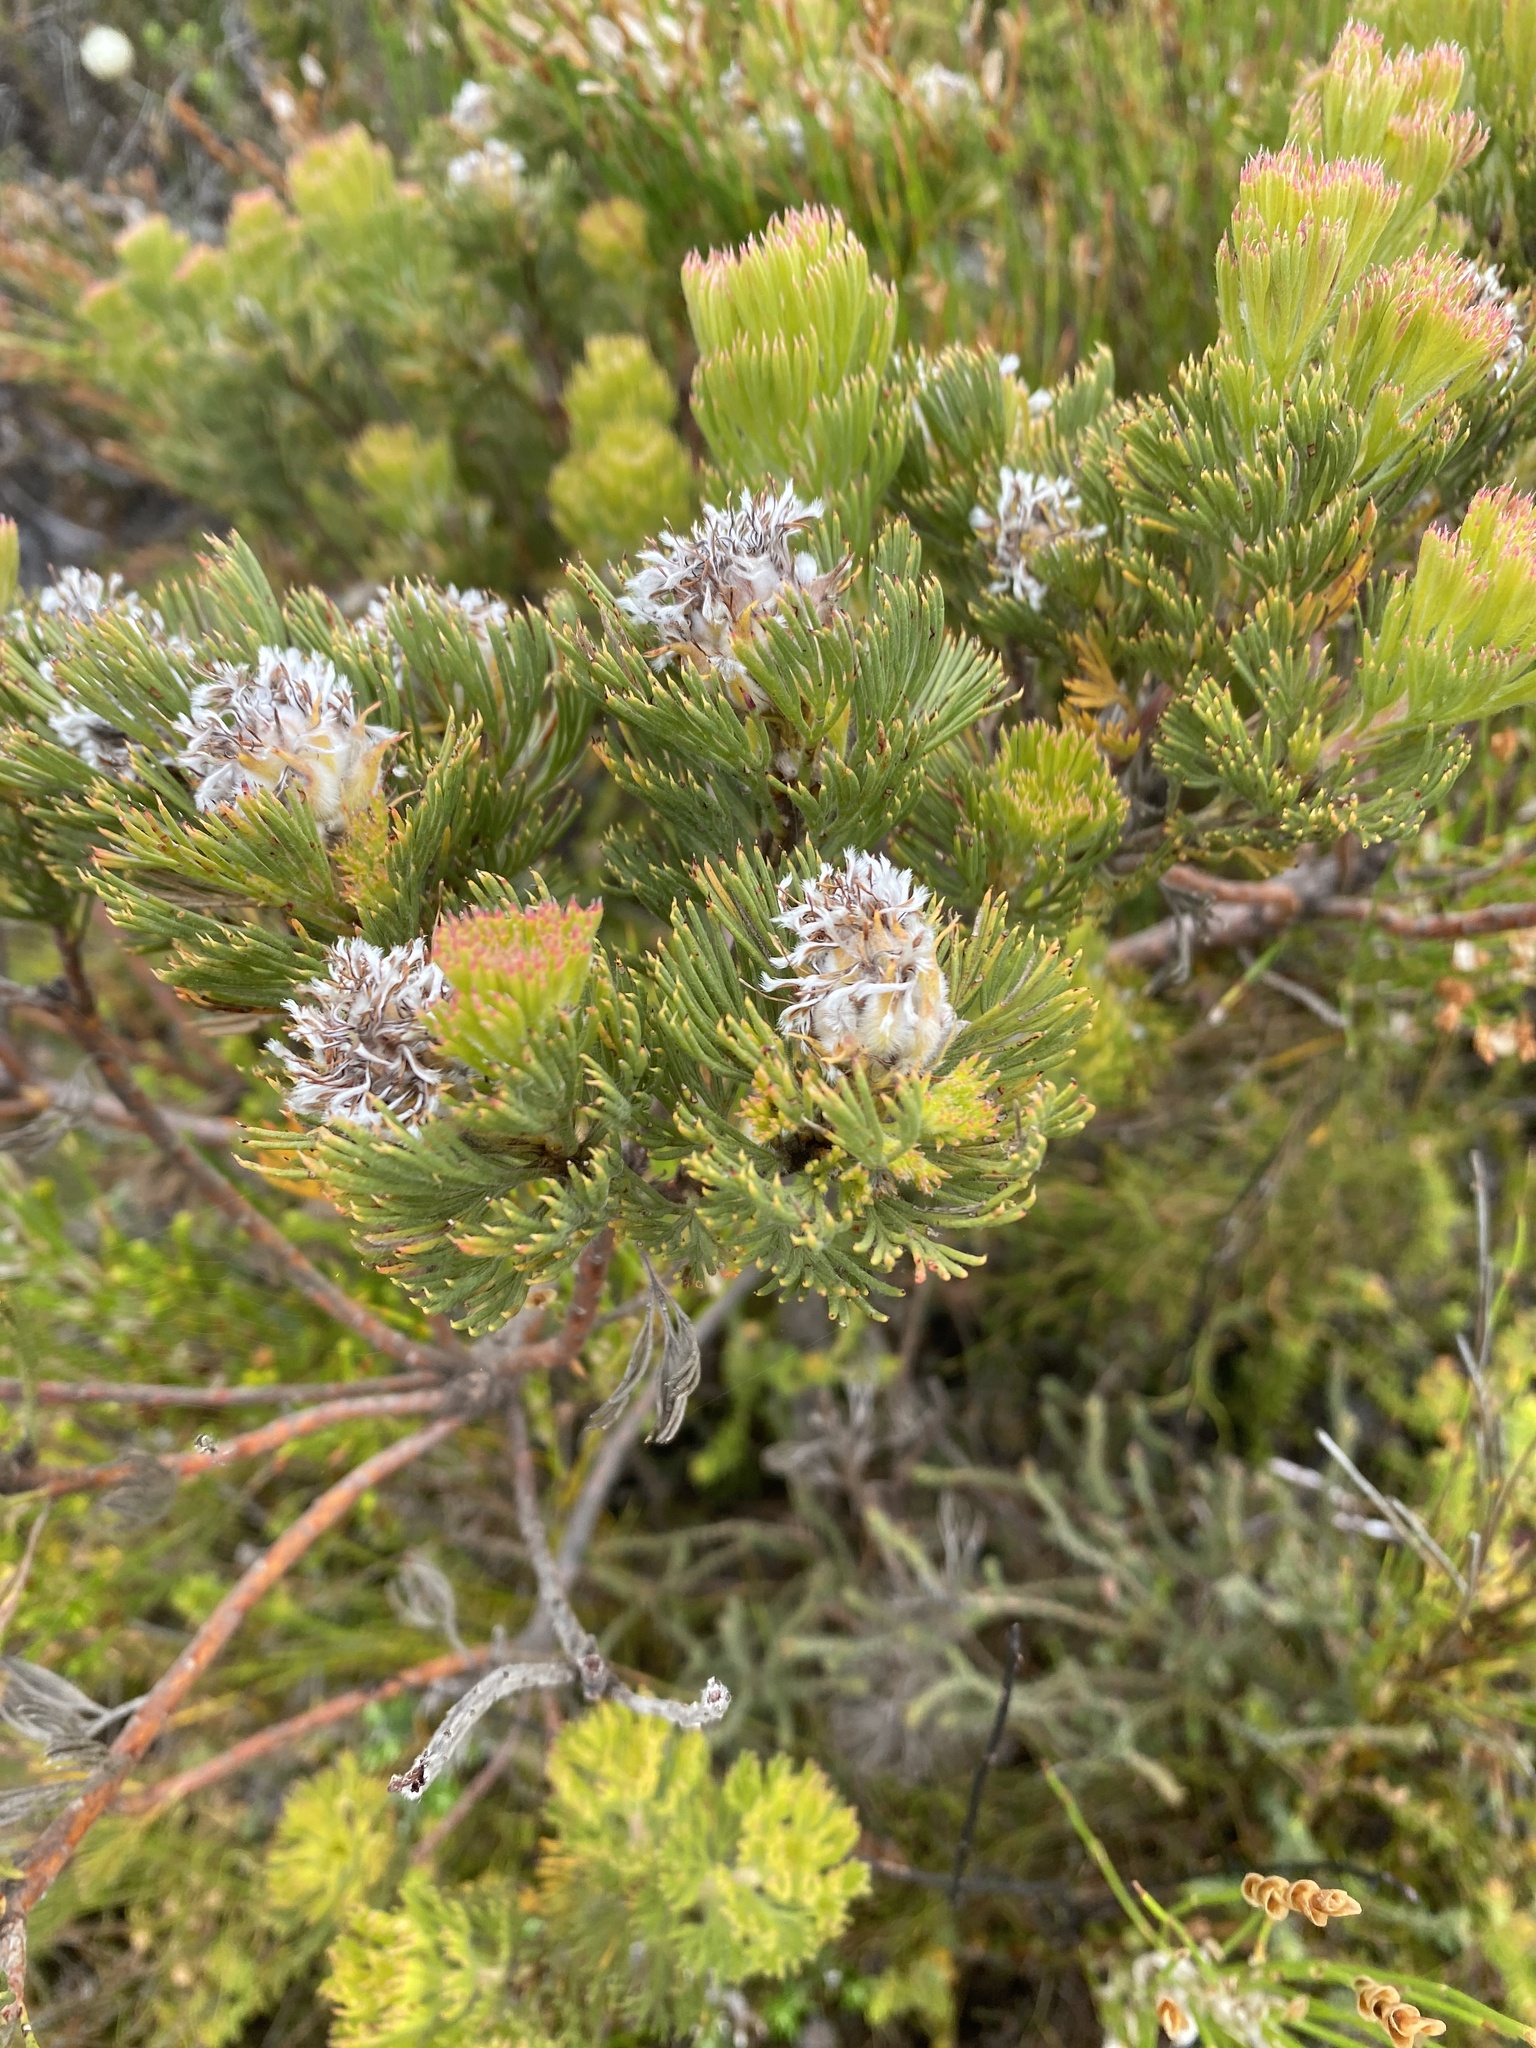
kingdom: Plantae
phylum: Tracheophyta
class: Magnoliopsida
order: Proteales
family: Proteaceae
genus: Serruria
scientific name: Serruria villosa
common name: Golden spiderhead
